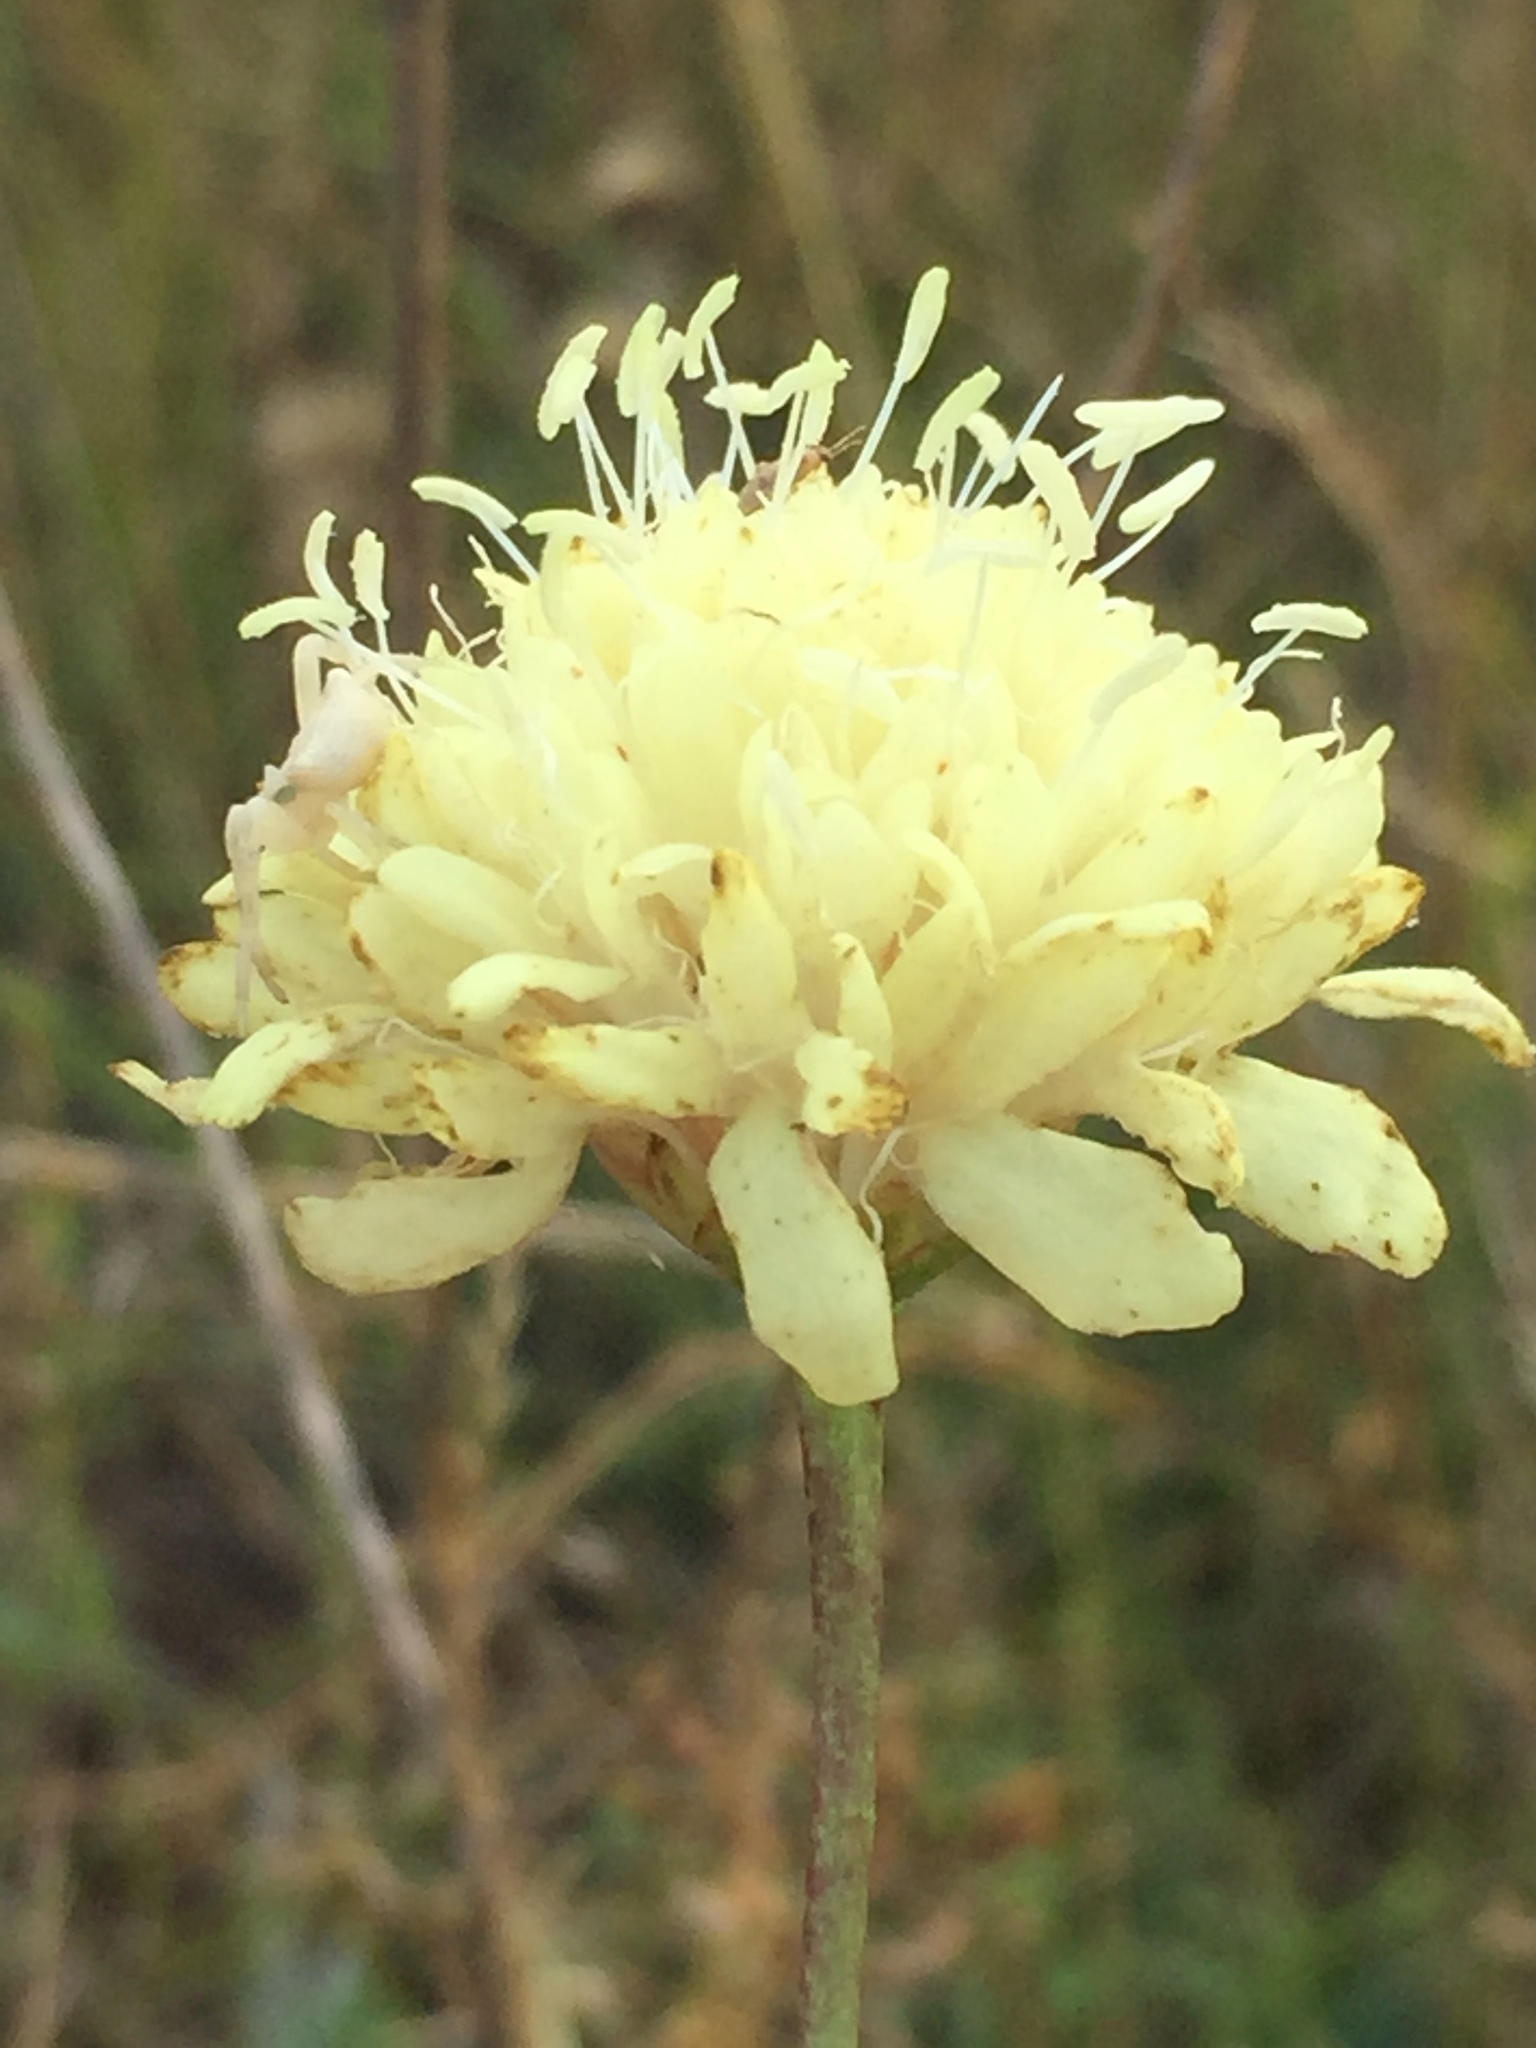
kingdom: Plantae
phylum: Tracheophyta
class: Magnoliopsida
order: Dipsacales
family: Caprifoliaceae
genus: Cephalaria
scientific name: Cephalaria uralensis
